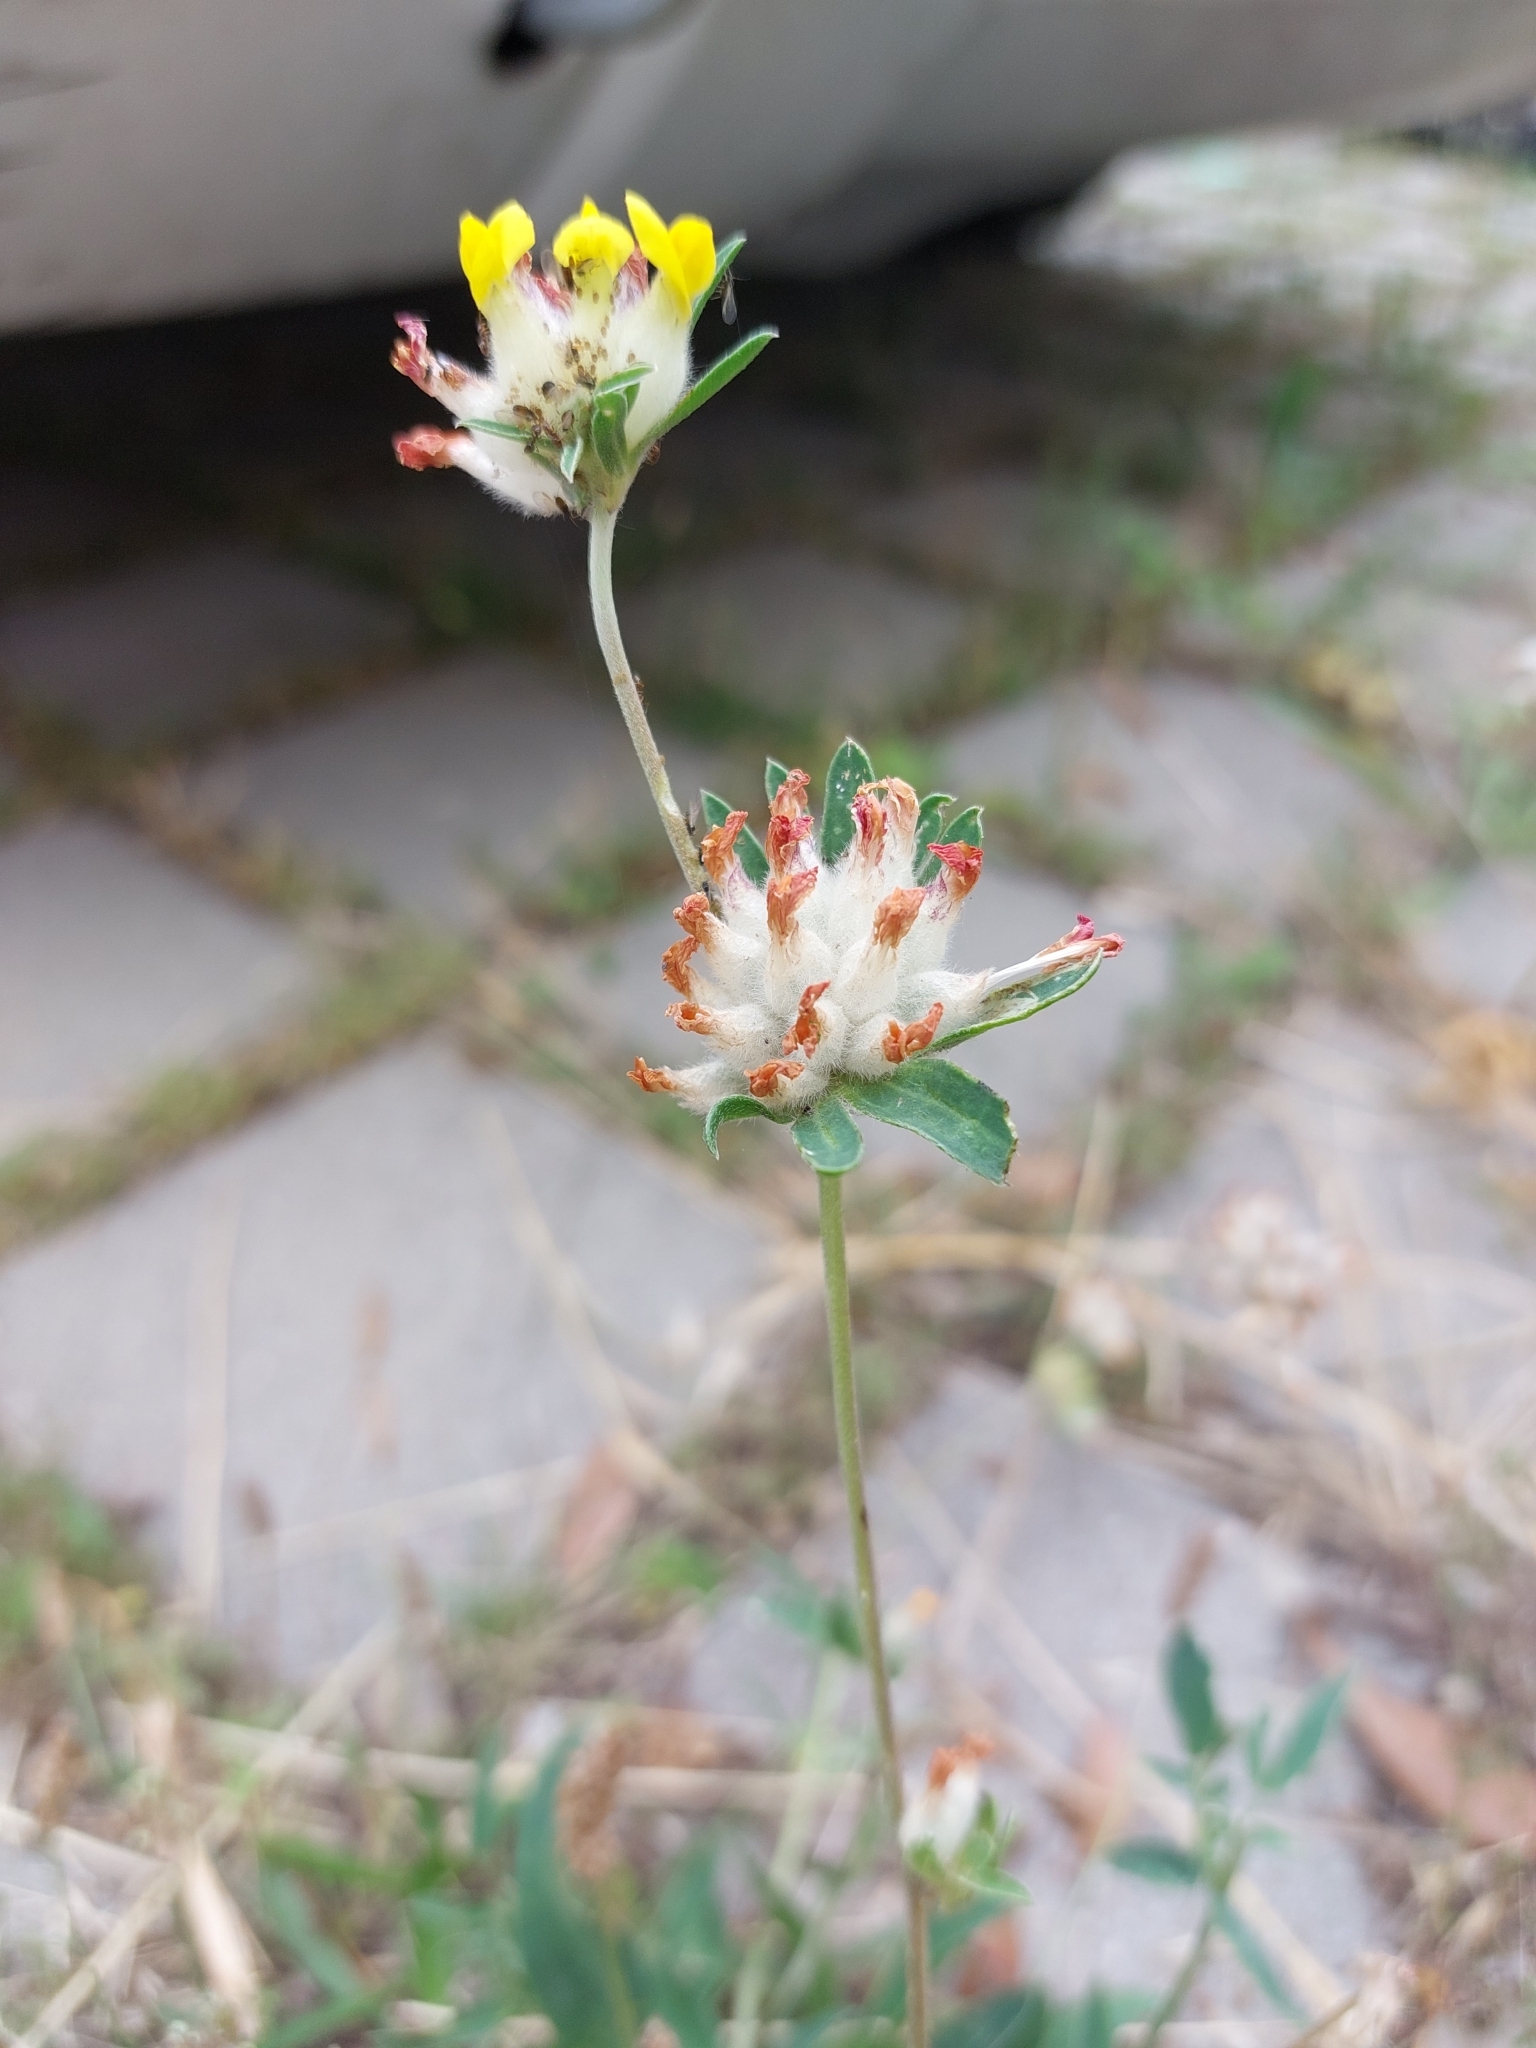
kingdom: Plantae
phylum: Tracheophyta
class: Magnoliopsida
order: Fabales
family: Fabaceae
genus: Anthyllis
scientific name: Anthyllis vulneraria
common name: Kidney vetch
